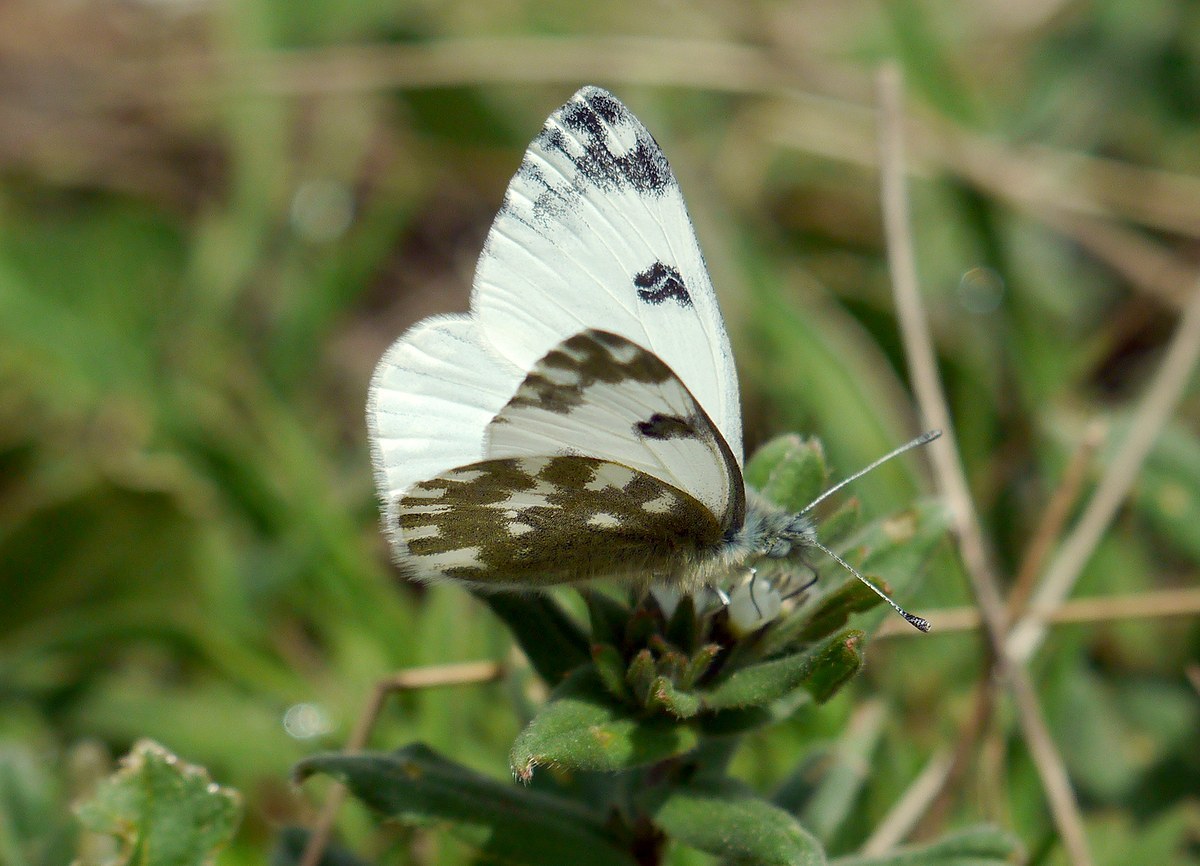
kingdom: Animalia
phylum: Arthropoda
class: Insecta
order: Lepidoptera
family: Pieridae
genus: Pontia
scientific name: Pontia edusa
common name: Eastern bath white
